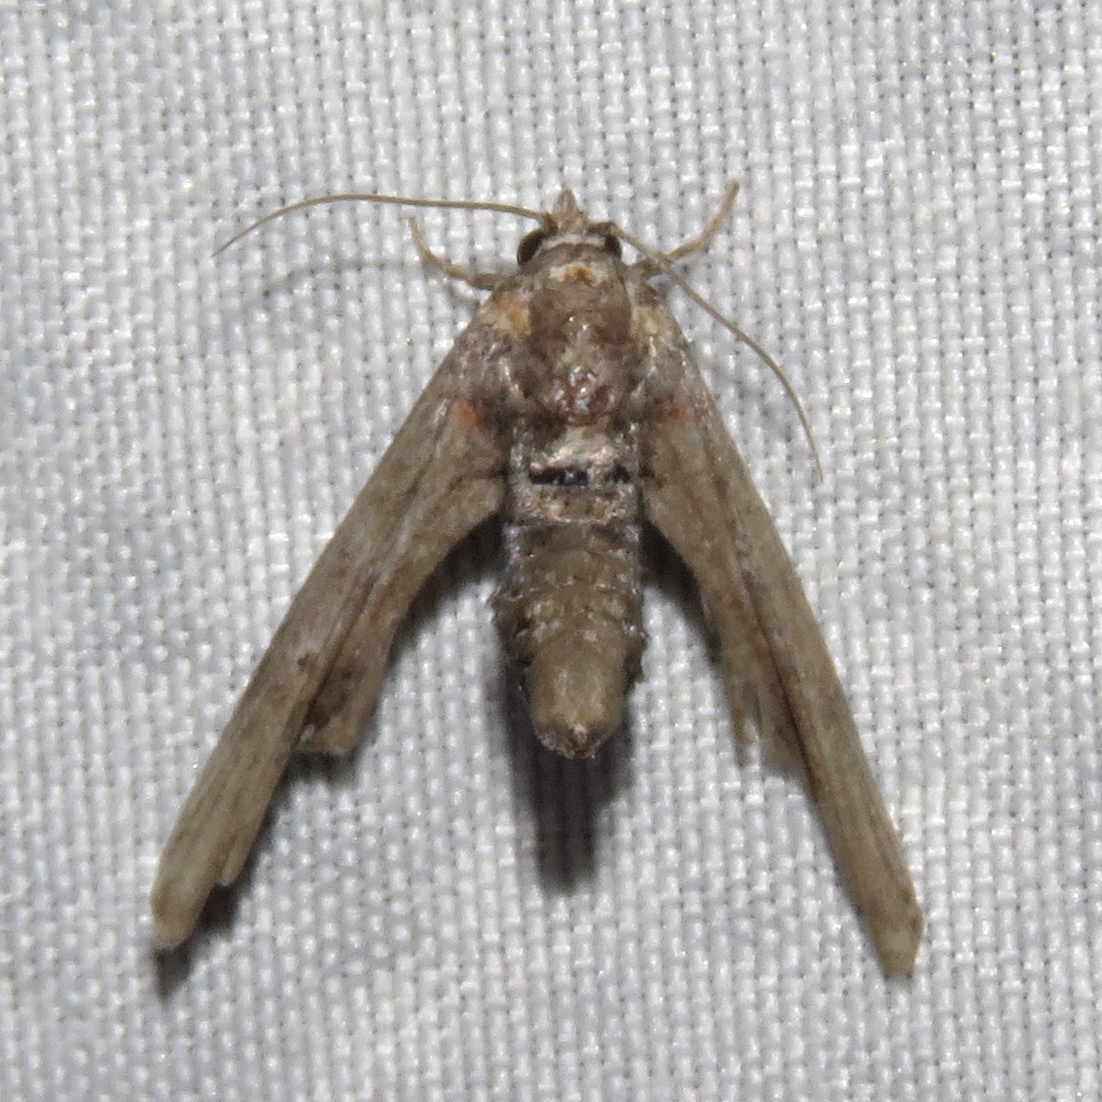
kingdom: Animalia
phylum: Arthropoda
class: Insecta
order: Lepidoptera
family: Euteliidae
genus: Marathyssa
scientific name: Marathyssa inficita
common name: Dark marathyssa moth
